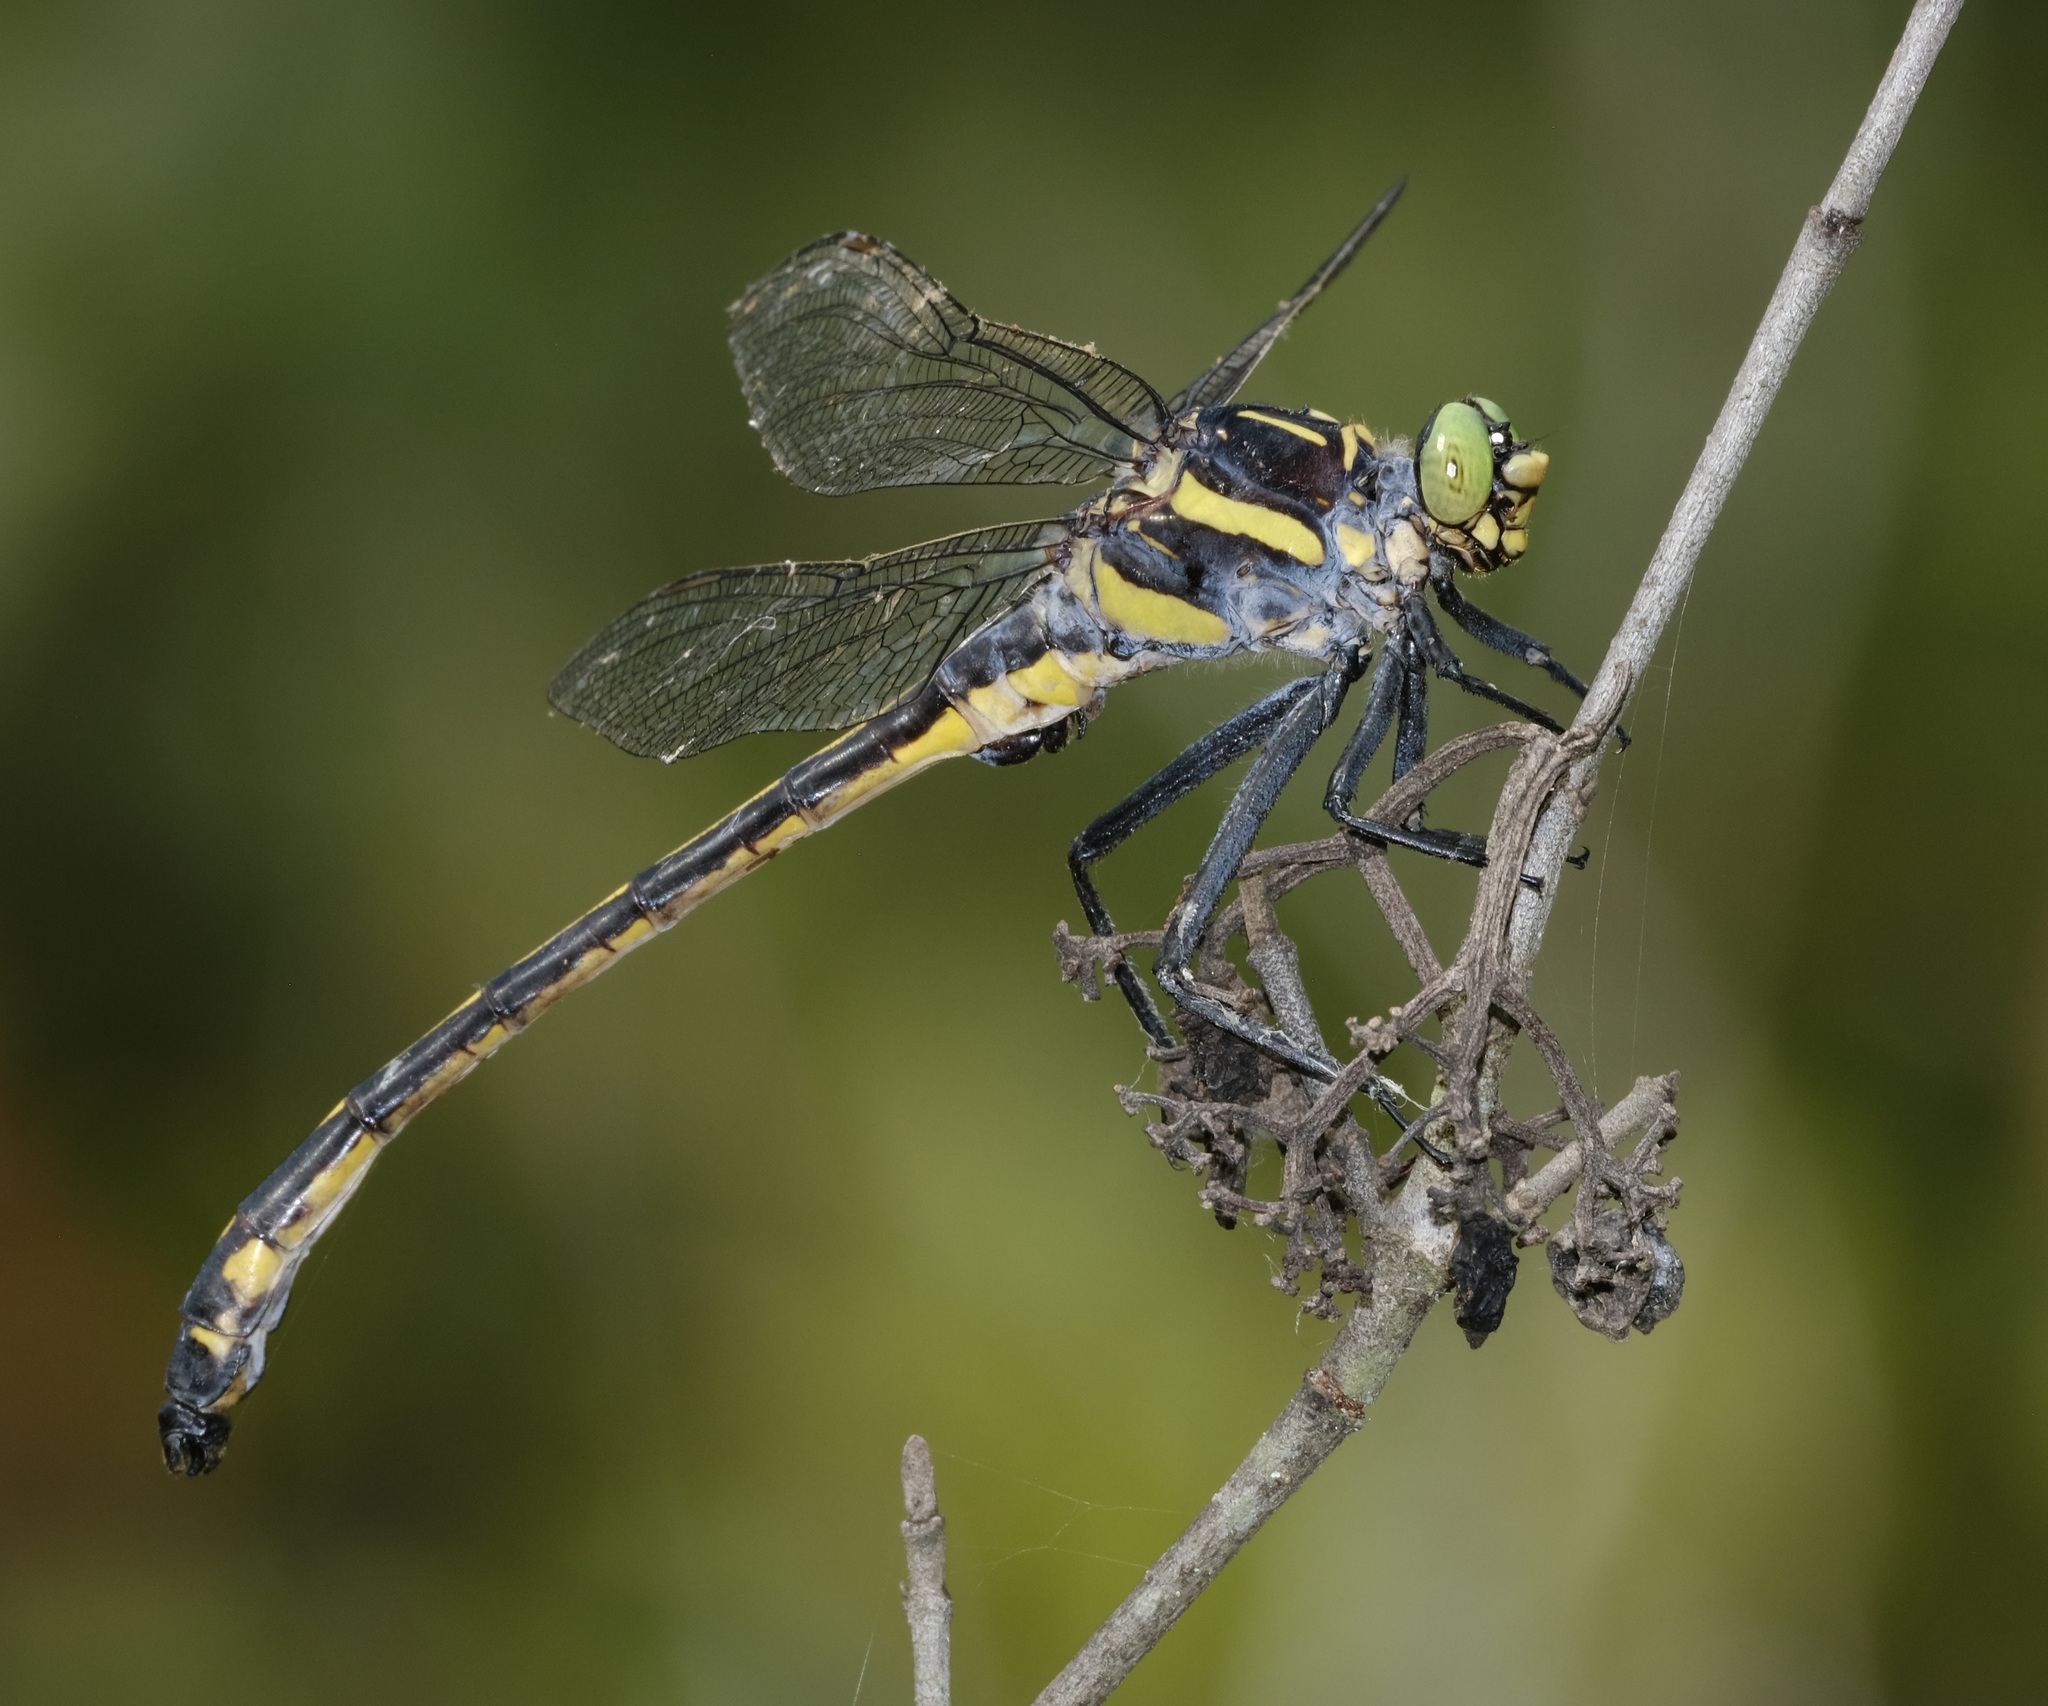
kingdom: Animalia
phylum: Arthropoda
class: Insecta
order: Odonata
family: Gomphidae
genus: Hagenius
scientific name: Hagenius brevistylus
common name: Dragonhunter
